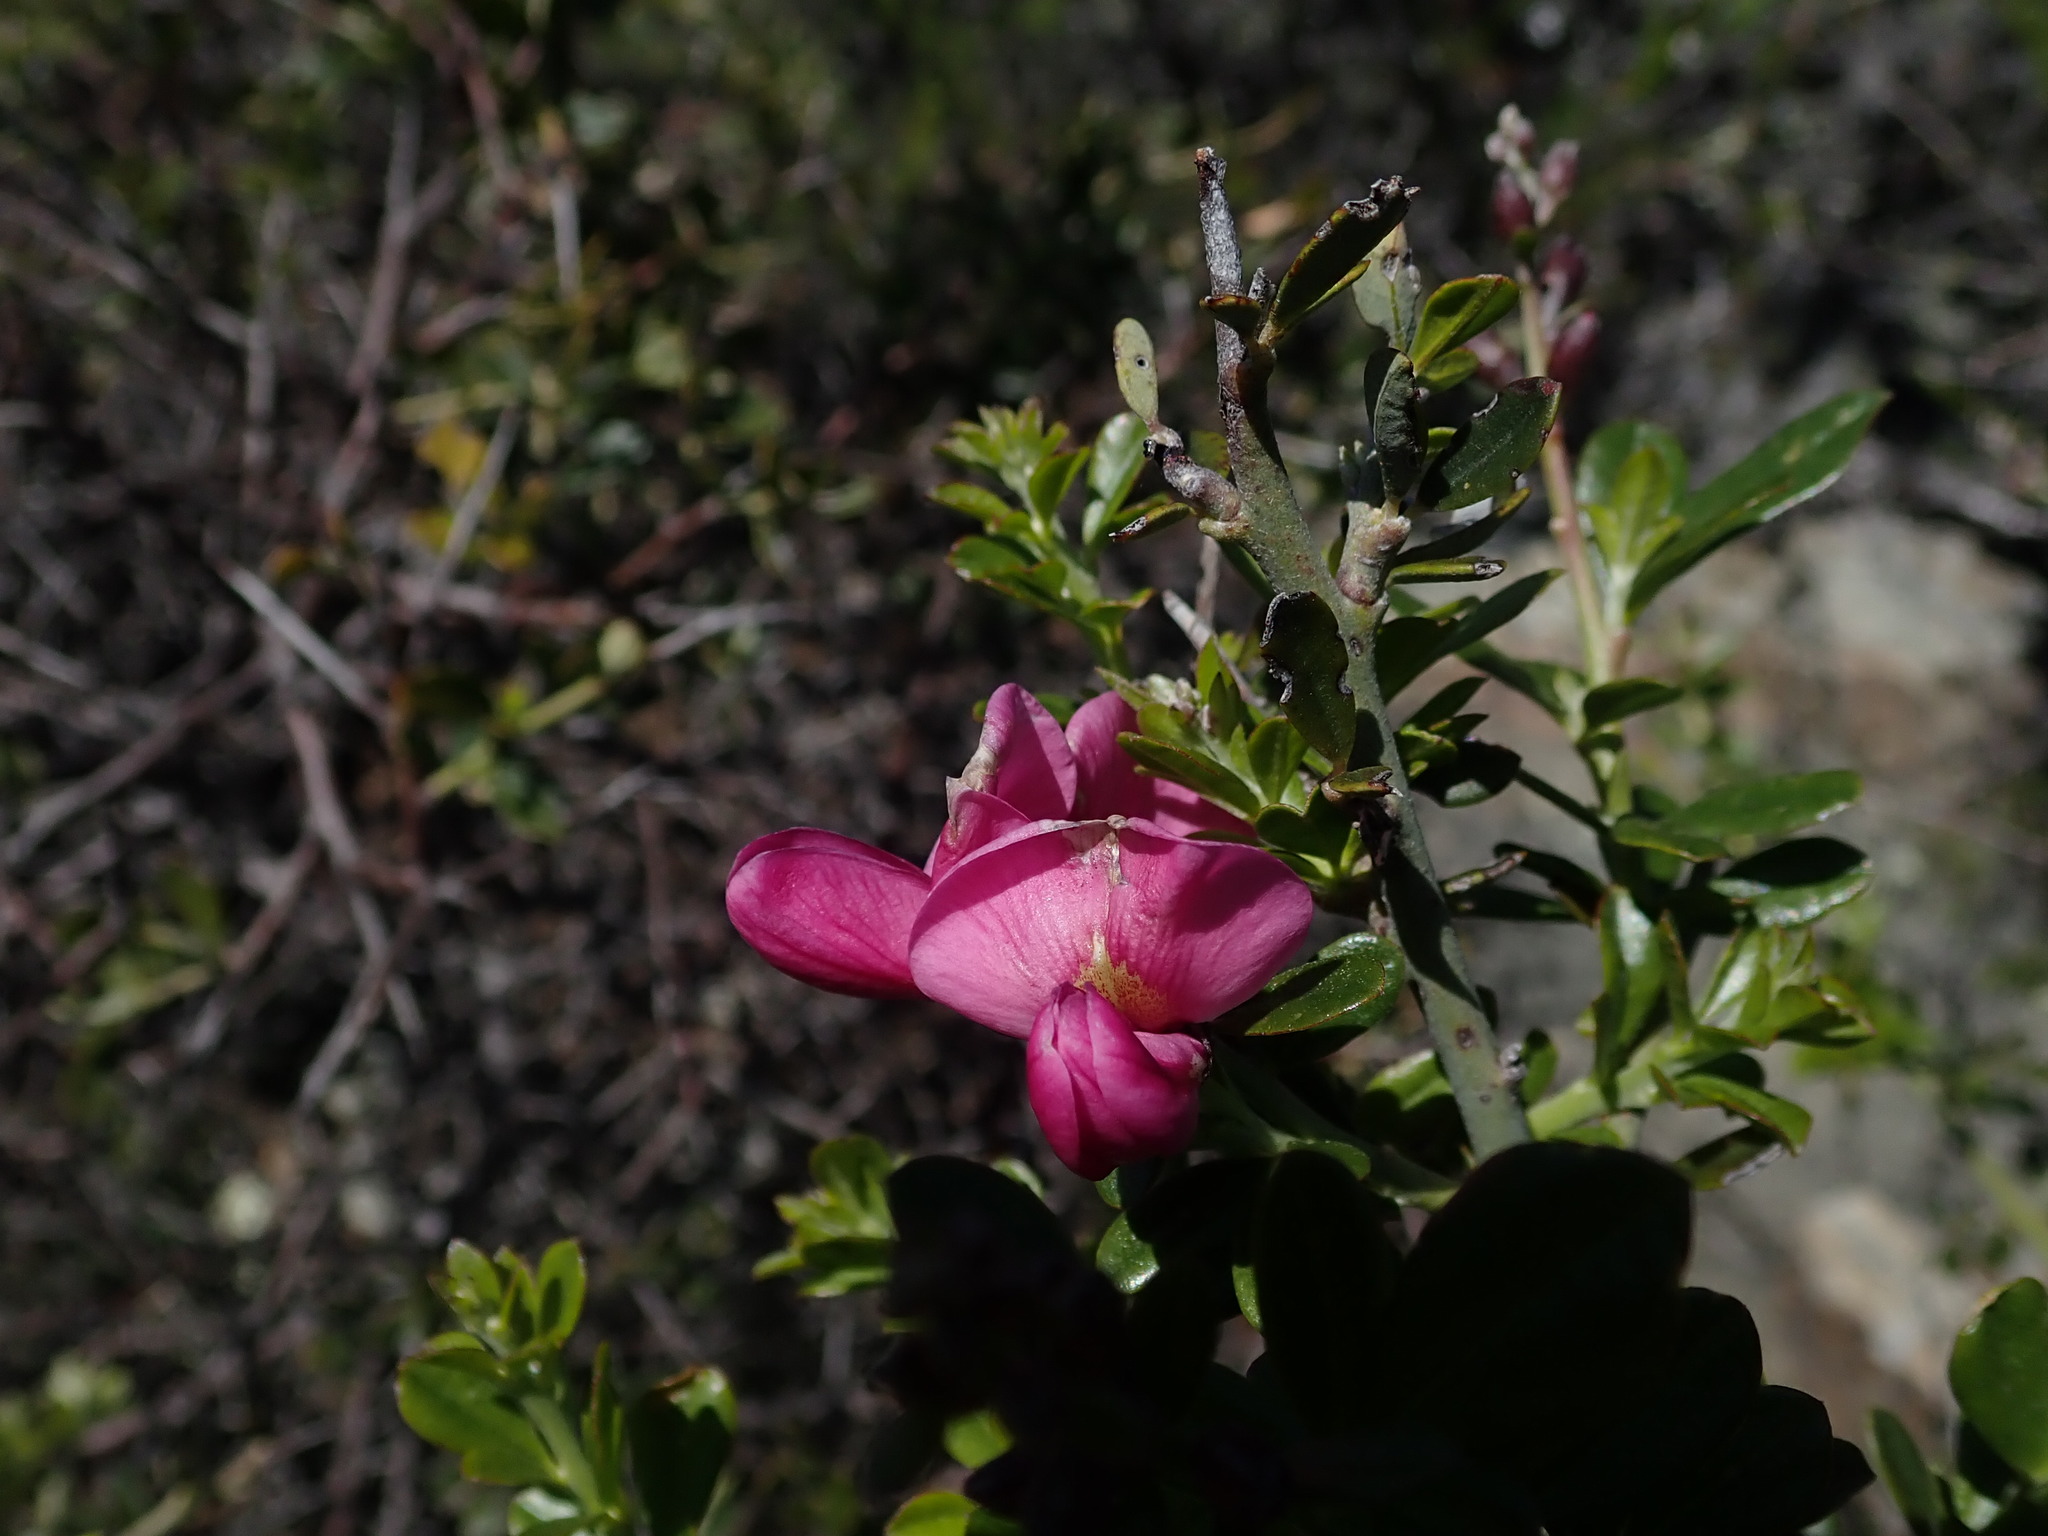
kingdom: Plantae
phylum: Tracheophyta
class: Magnoliopsida
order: Fabales
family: Fabaceae
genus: Pickeringia
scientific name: Pickeringia montana
